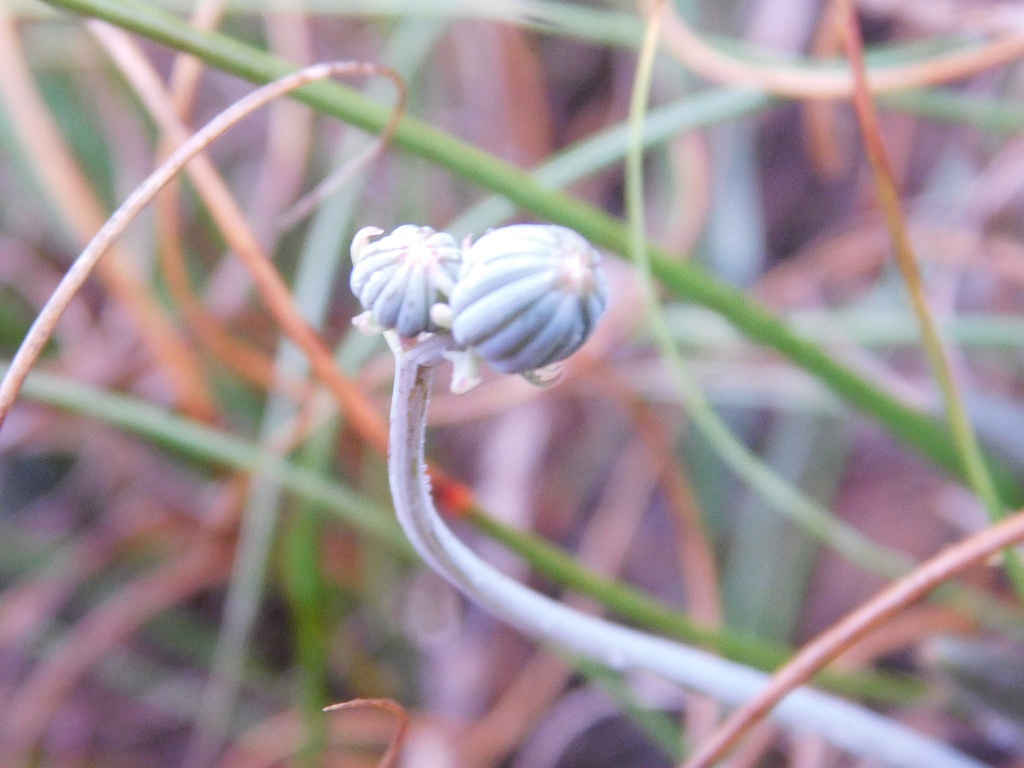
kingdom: Plantae
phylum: Tracheophyta
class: Magnoliopsida
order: Asterales
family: Asteraceae
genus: Curio
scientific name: Curio archeri
